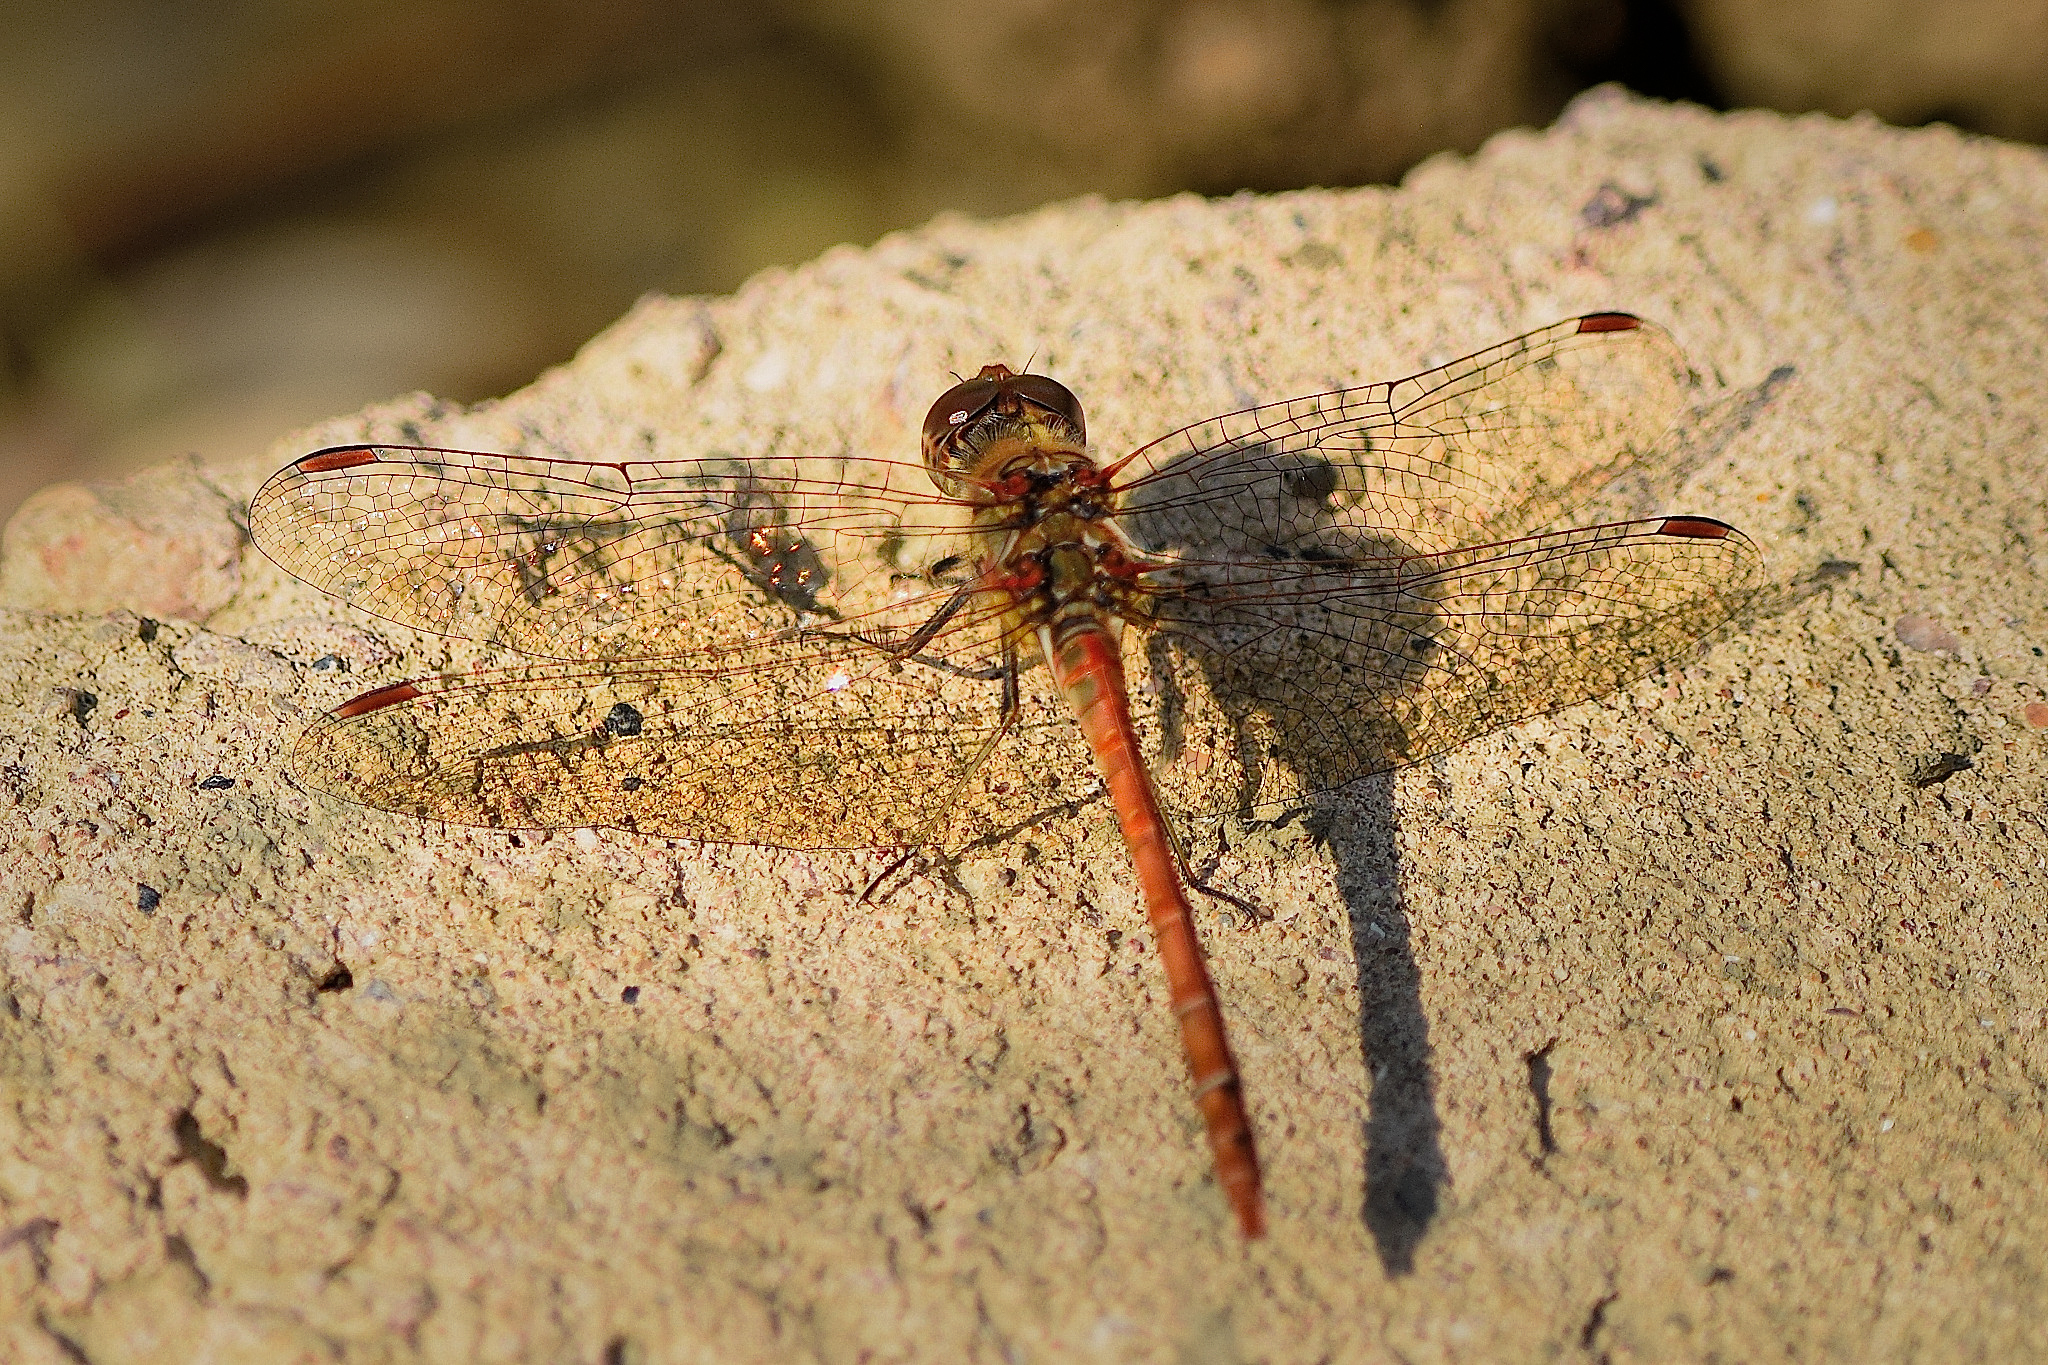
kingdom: Animalia
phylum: Arthropoda
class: Insecta
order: Odonata
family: Libellulidae
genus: Sympetrum
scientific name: Sympetrum striolatum
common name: Common darter
